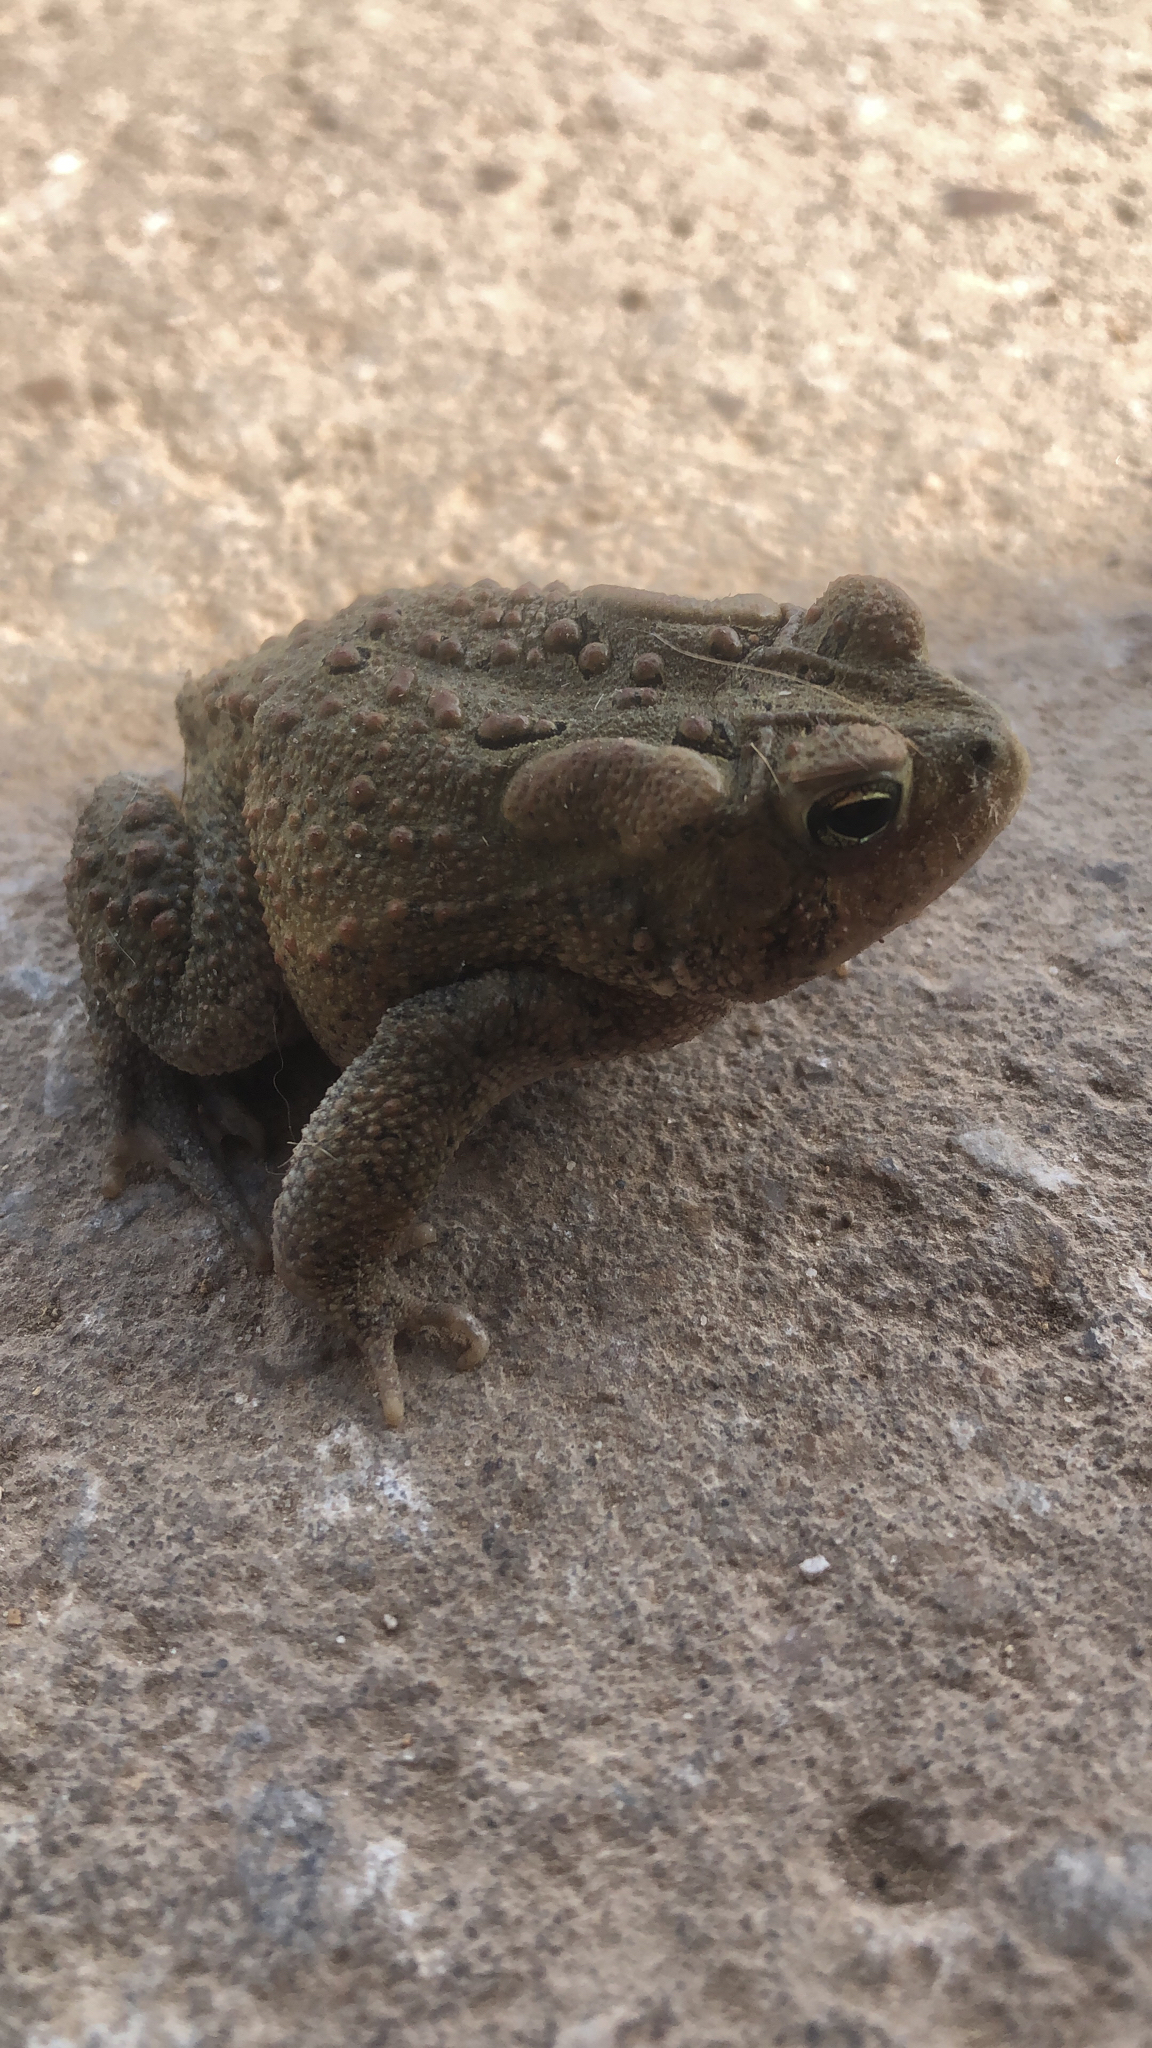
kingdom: Animalia
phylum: Chordata
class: Amphibia
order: Anura
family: Bufonidae
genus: Anaxyrus
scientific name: Anaxyrus americanus
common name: American toad
